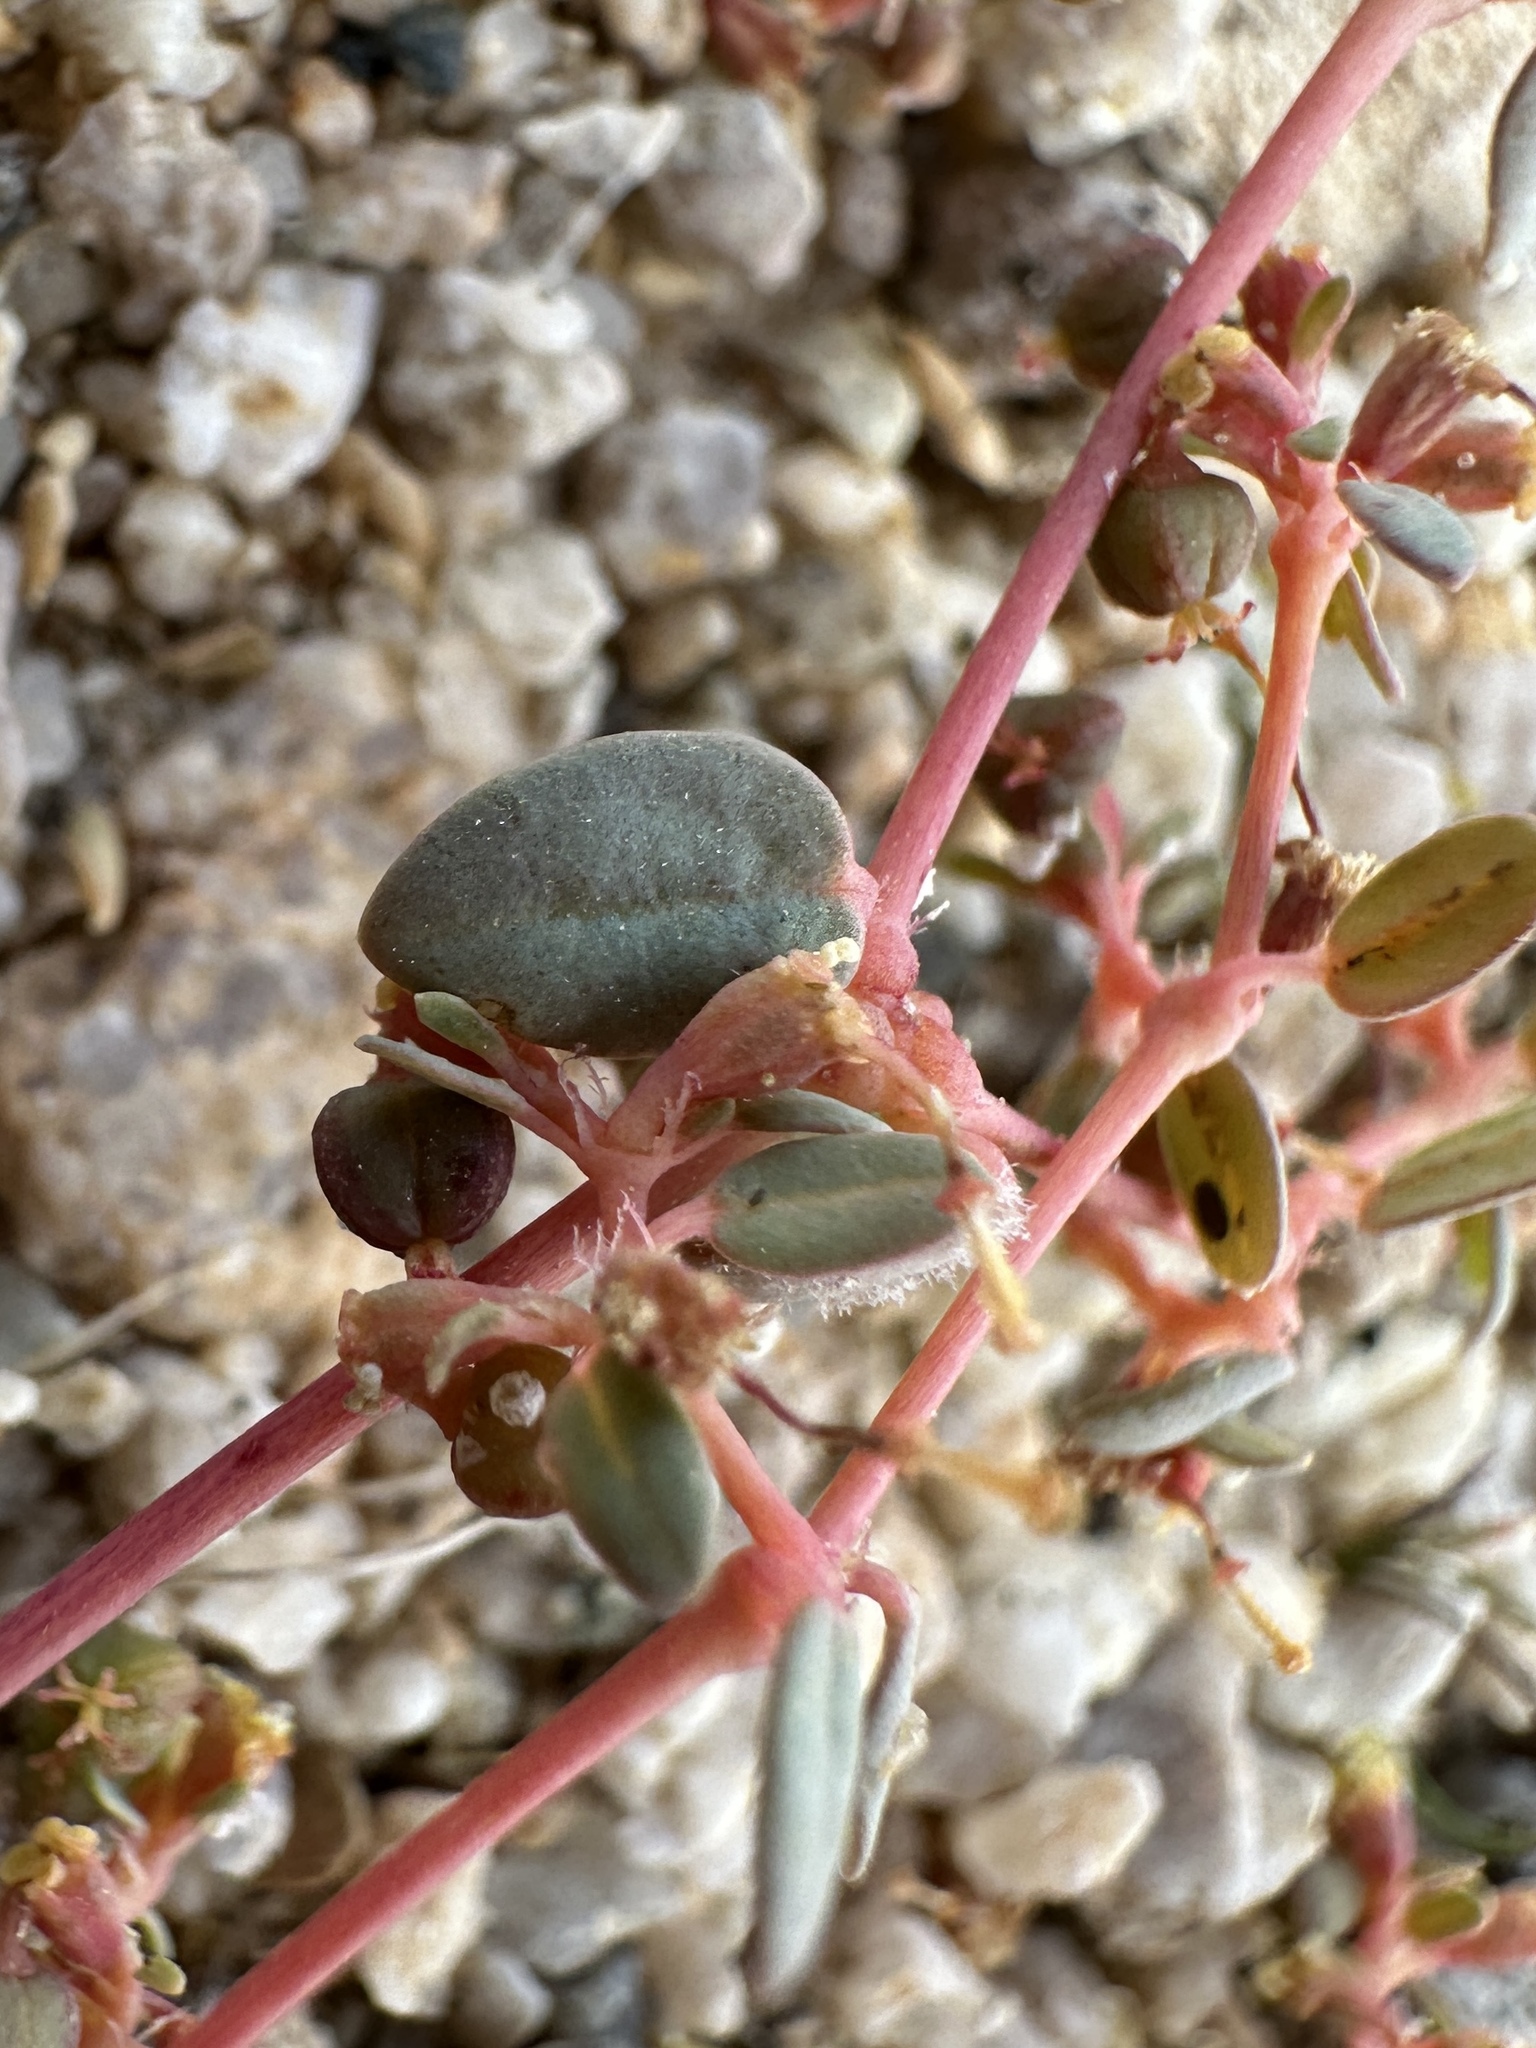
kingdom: Plantae
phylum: Tracheophyta
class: Magnoliopsida
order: Malpighiales
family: Euphorbiaceae
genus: Euphorbia
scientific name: Euphorbia parishii
